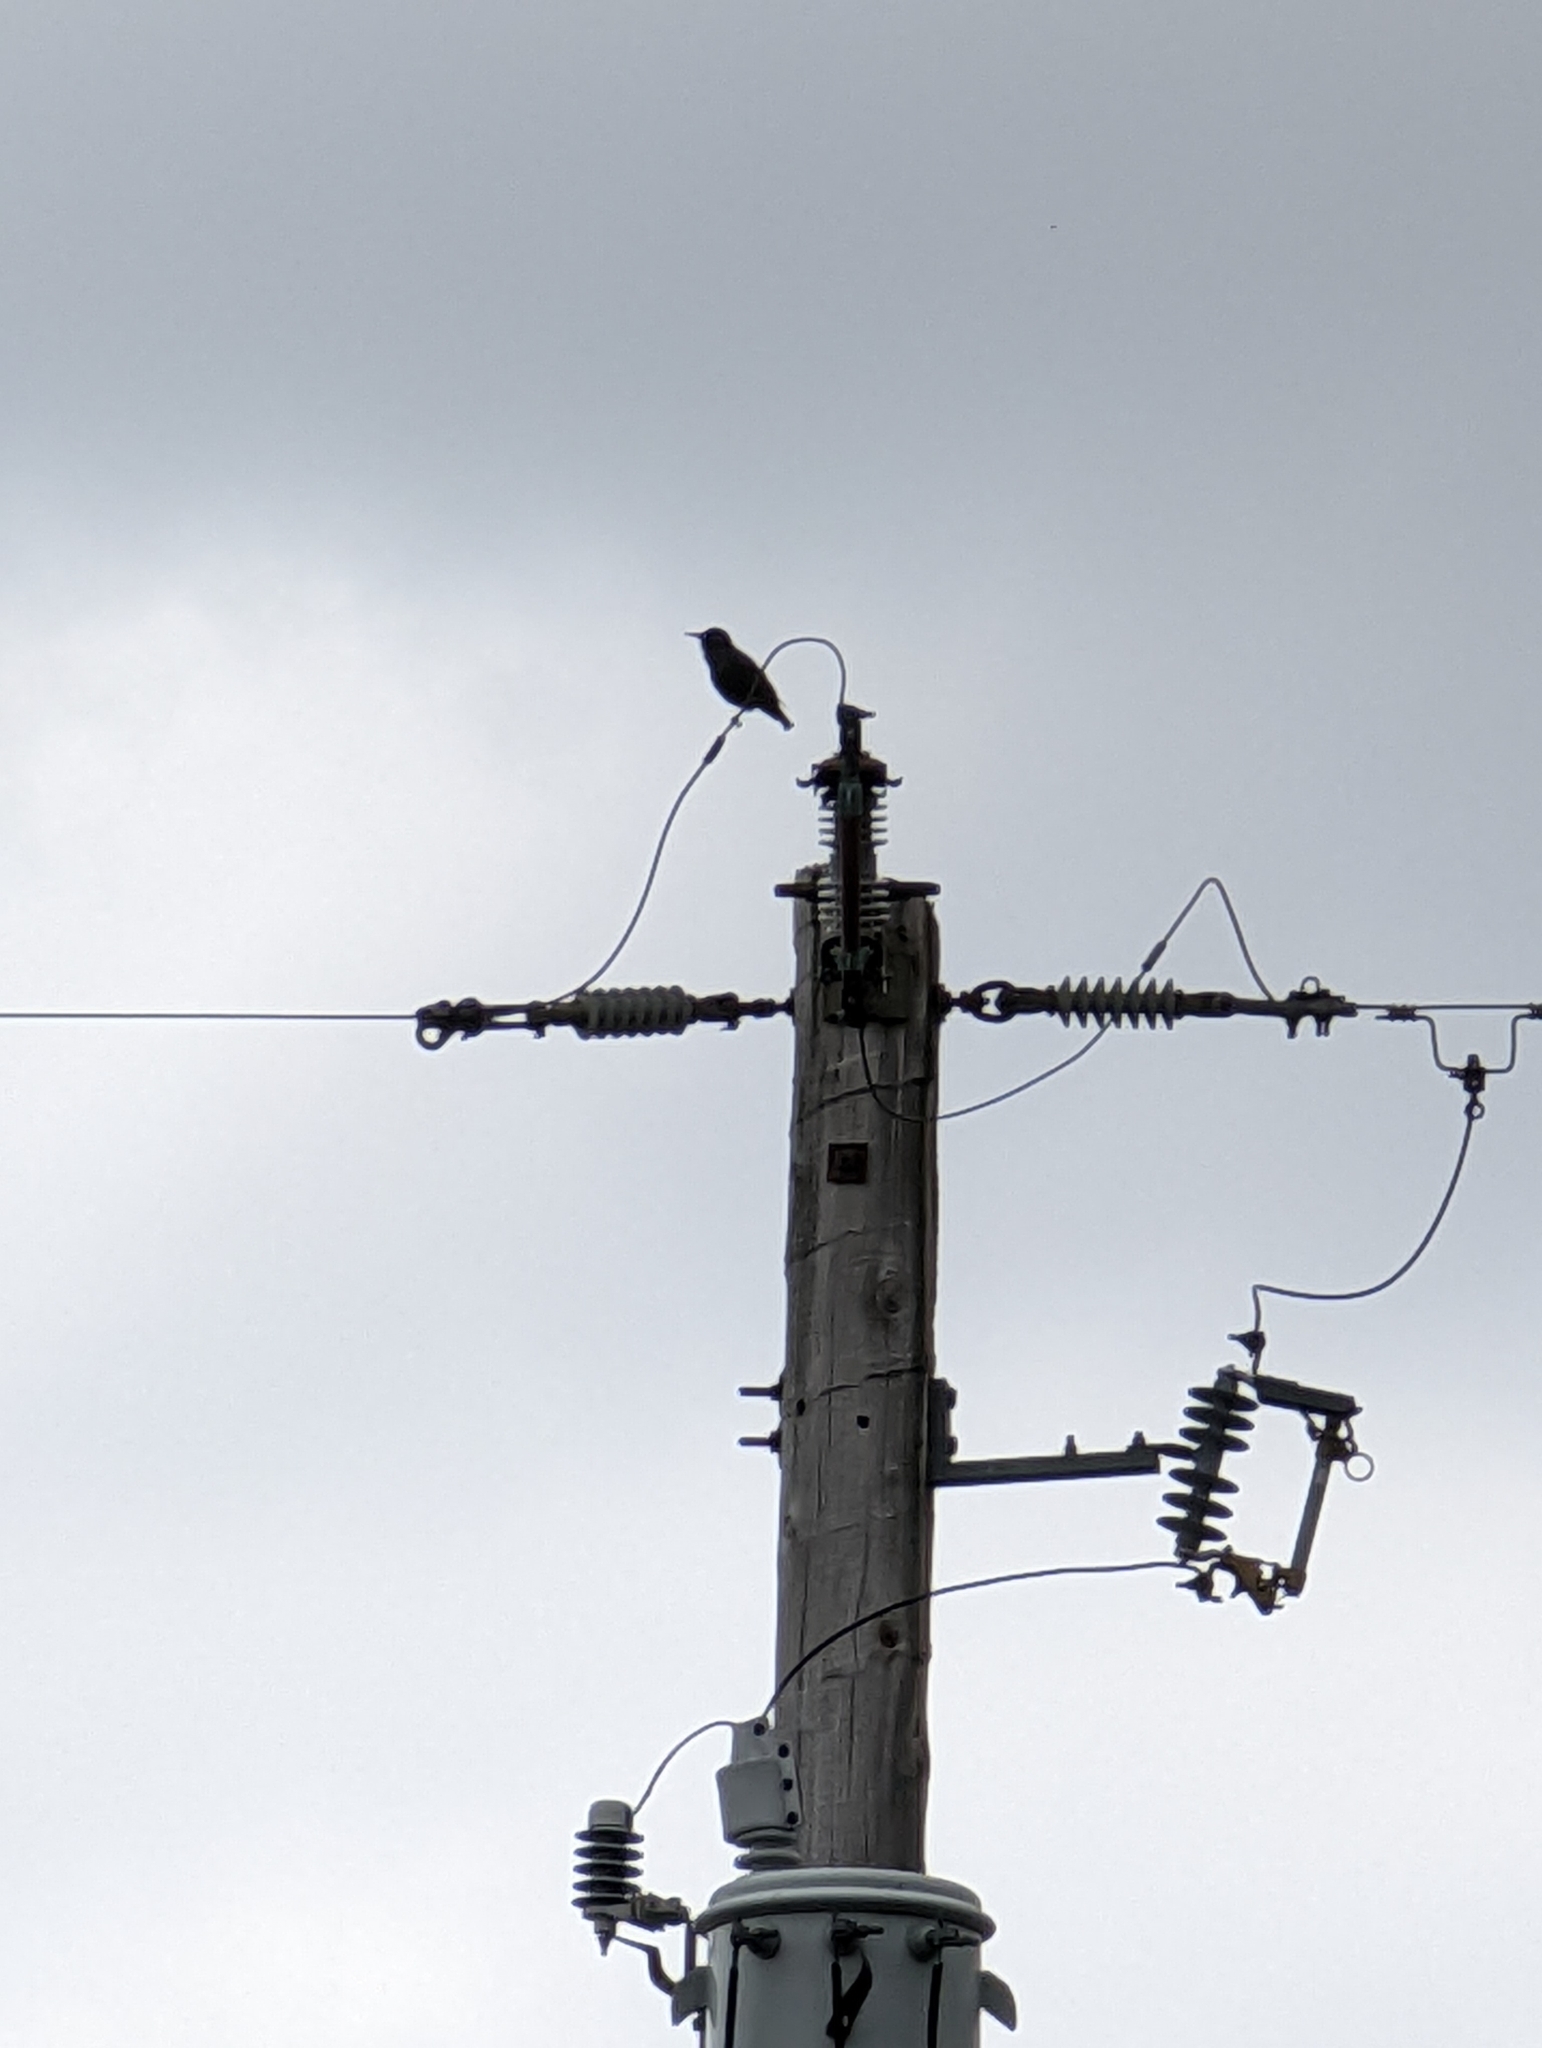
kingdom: Animalia
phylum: Chordata
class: Aves
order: Passeriformes
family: Sturnidae
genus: Sturnus
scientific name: Sturnus vulgaris
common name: Common starling
